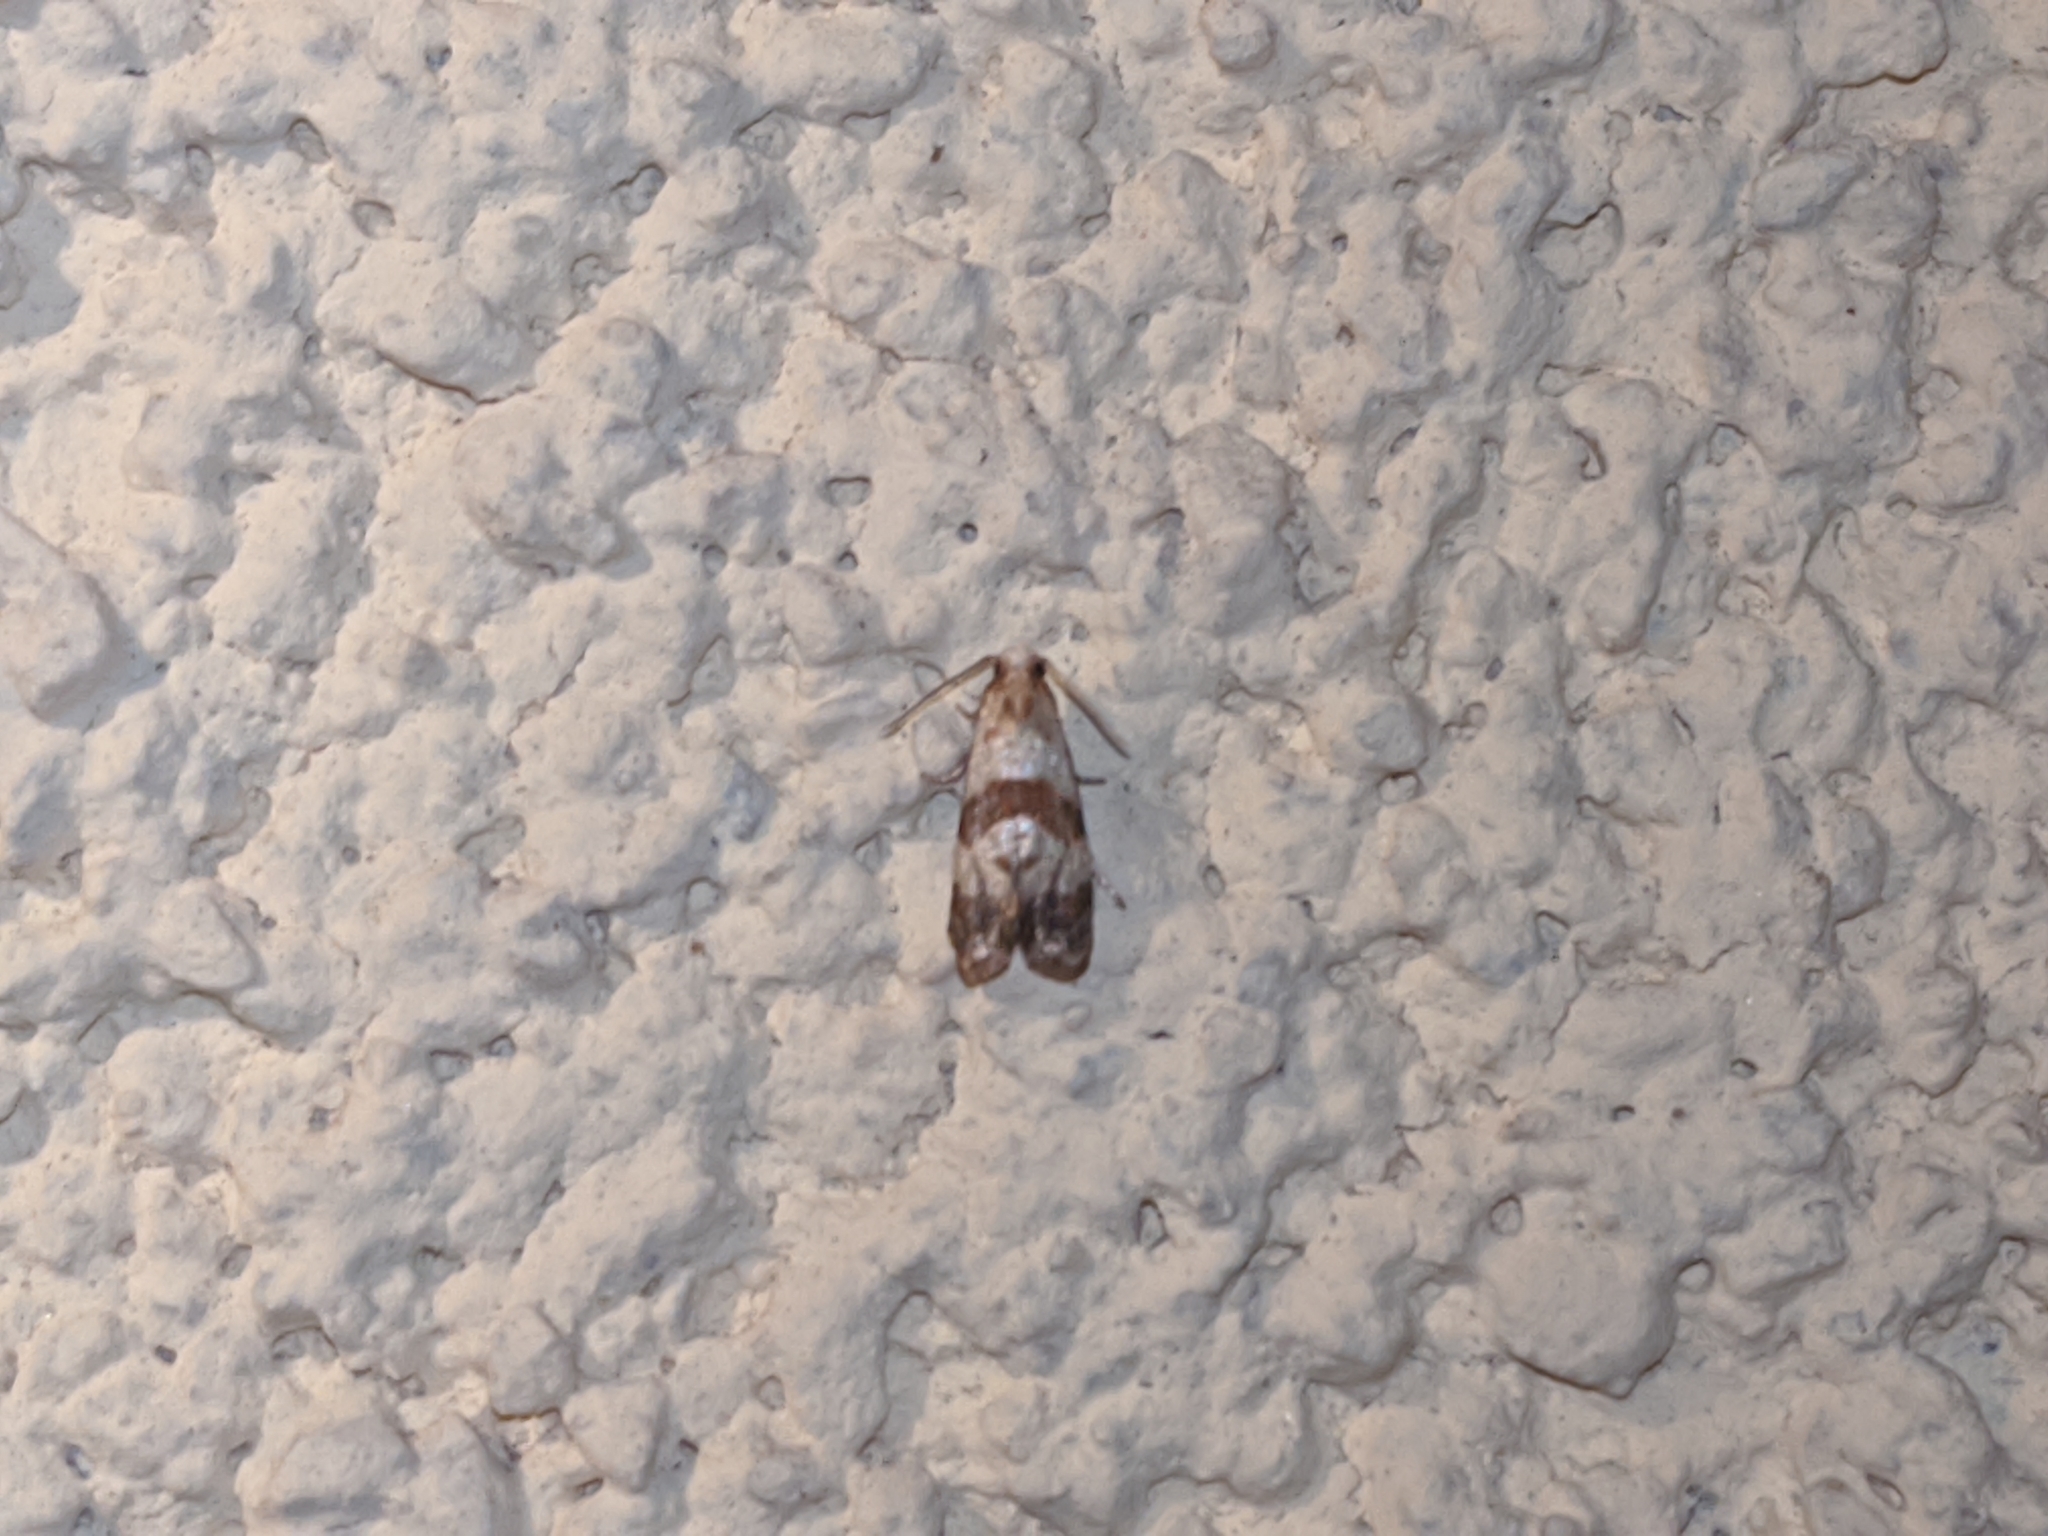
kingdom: Animalia
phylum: Arthropoda
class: Insecta
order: Lepidoptera
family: Tortricidae
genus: Phalonidia
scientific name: Phalonidia contractana
